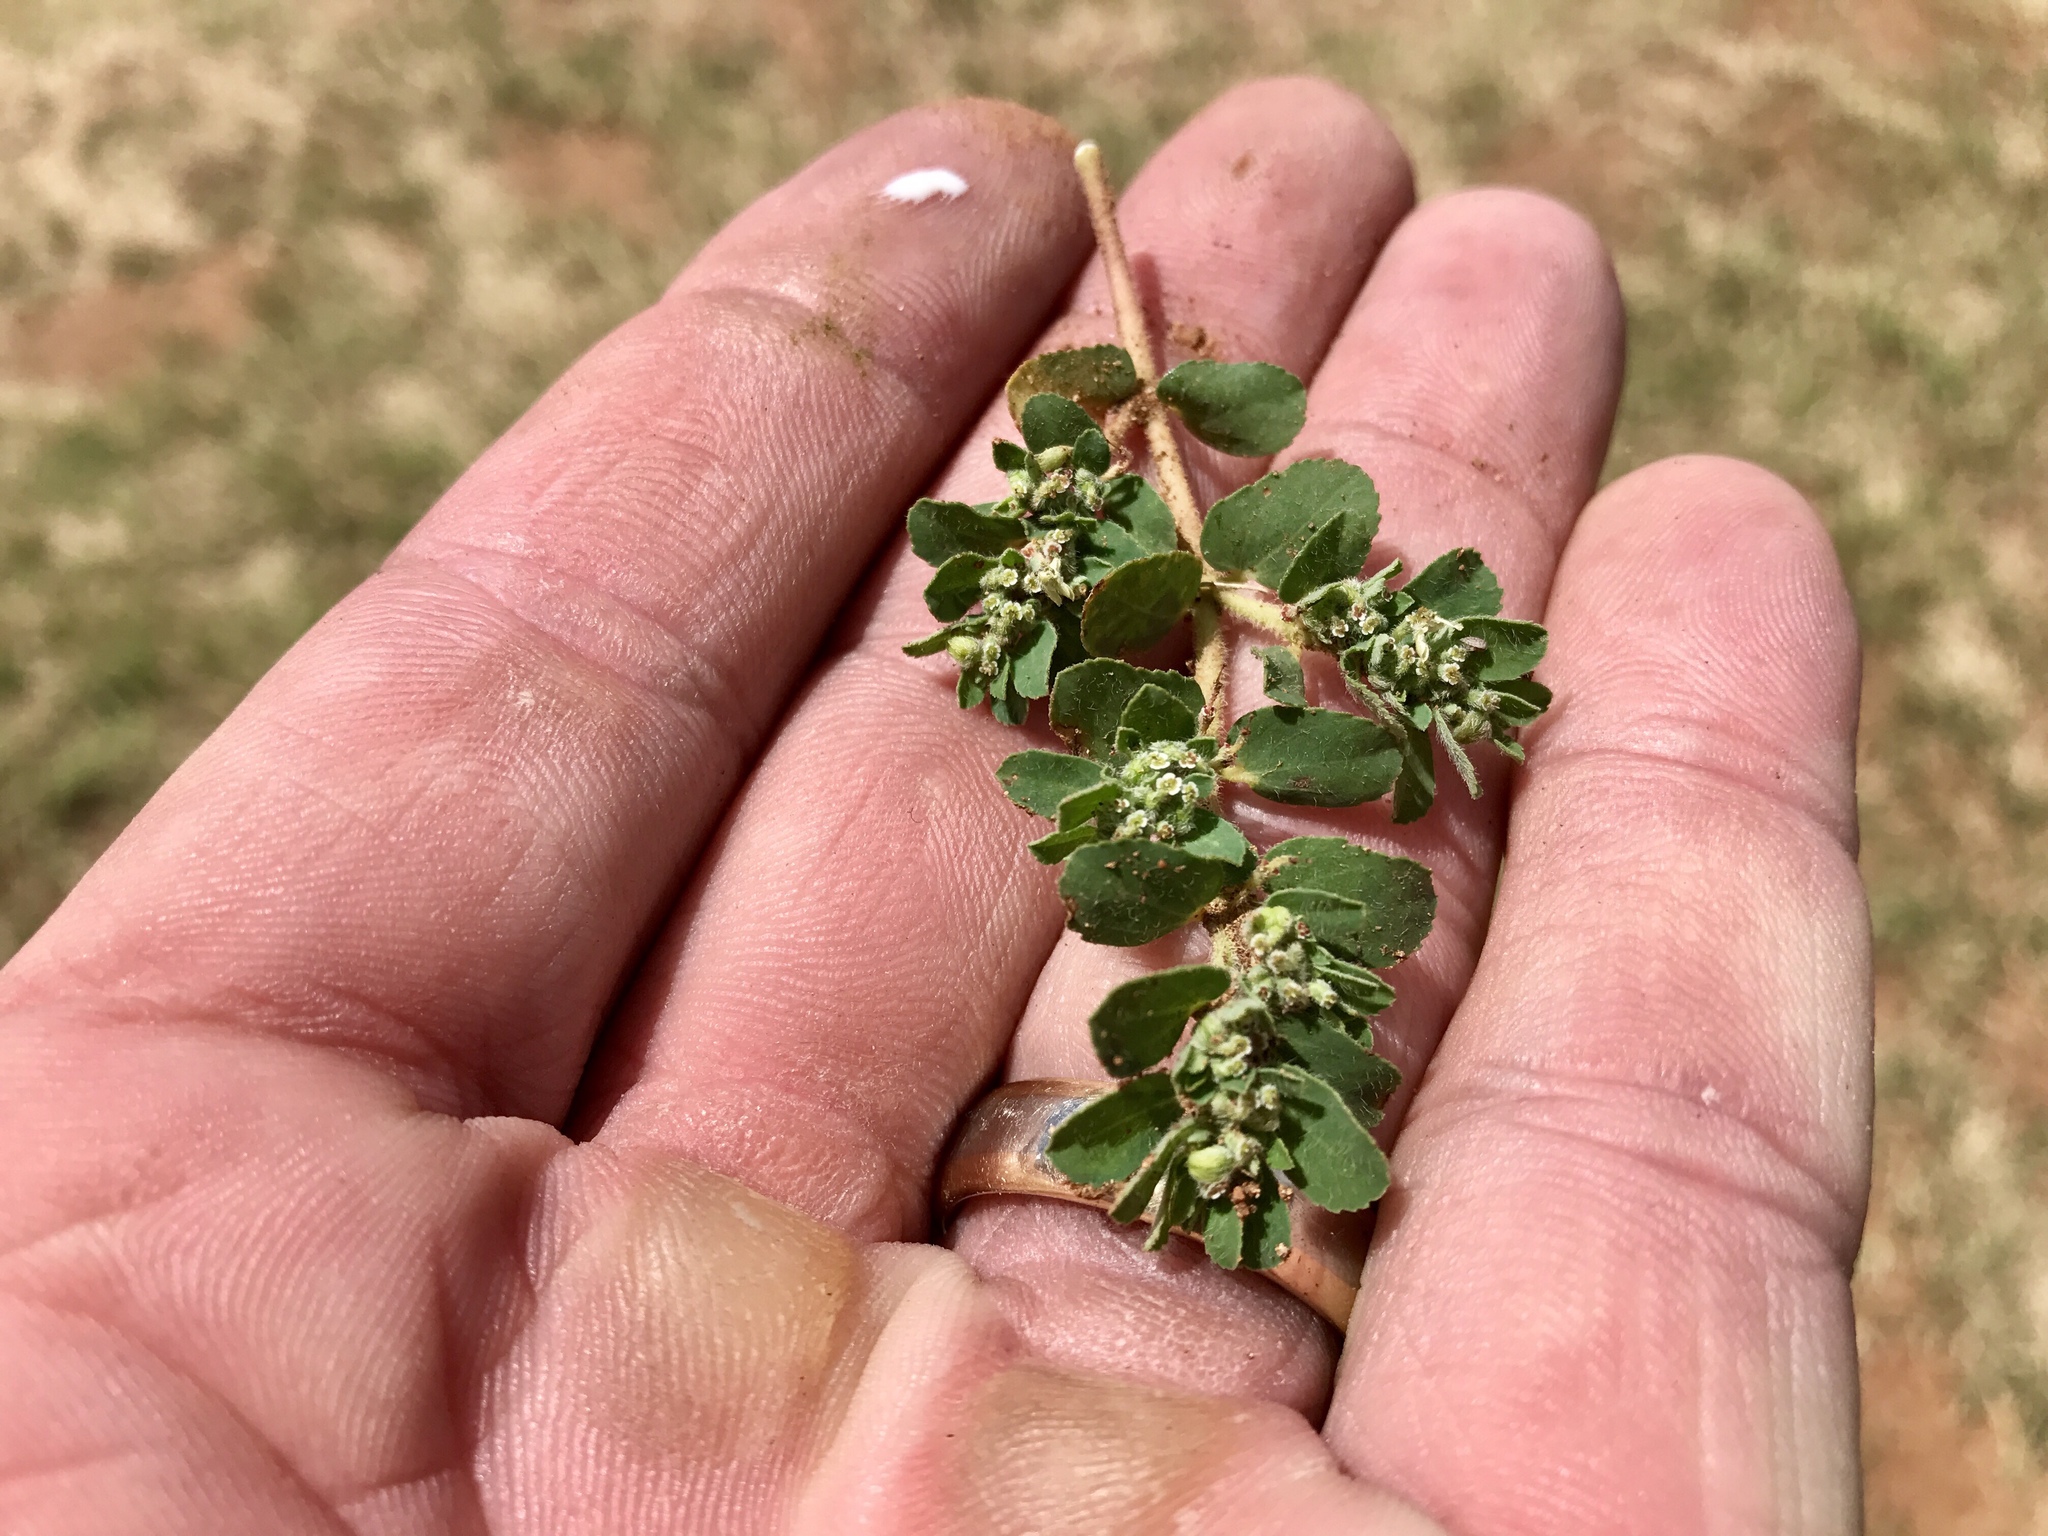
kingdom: Plantae
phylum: Tracheophyta
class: Magnoliopsida
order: Malpighiales
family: Euphorbiaceae
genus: Euphorbia
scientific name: Euphorbia stictospora
